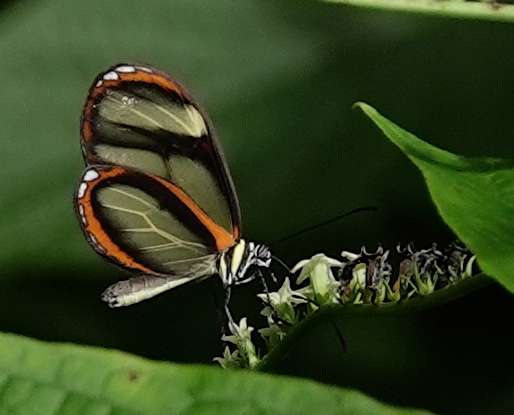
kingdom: Animalia
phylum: Arthropoda
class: Insecta
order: Lepidoptera
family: Nymphalidae
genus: Pteronymia
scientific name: Pteronymia vestilla
